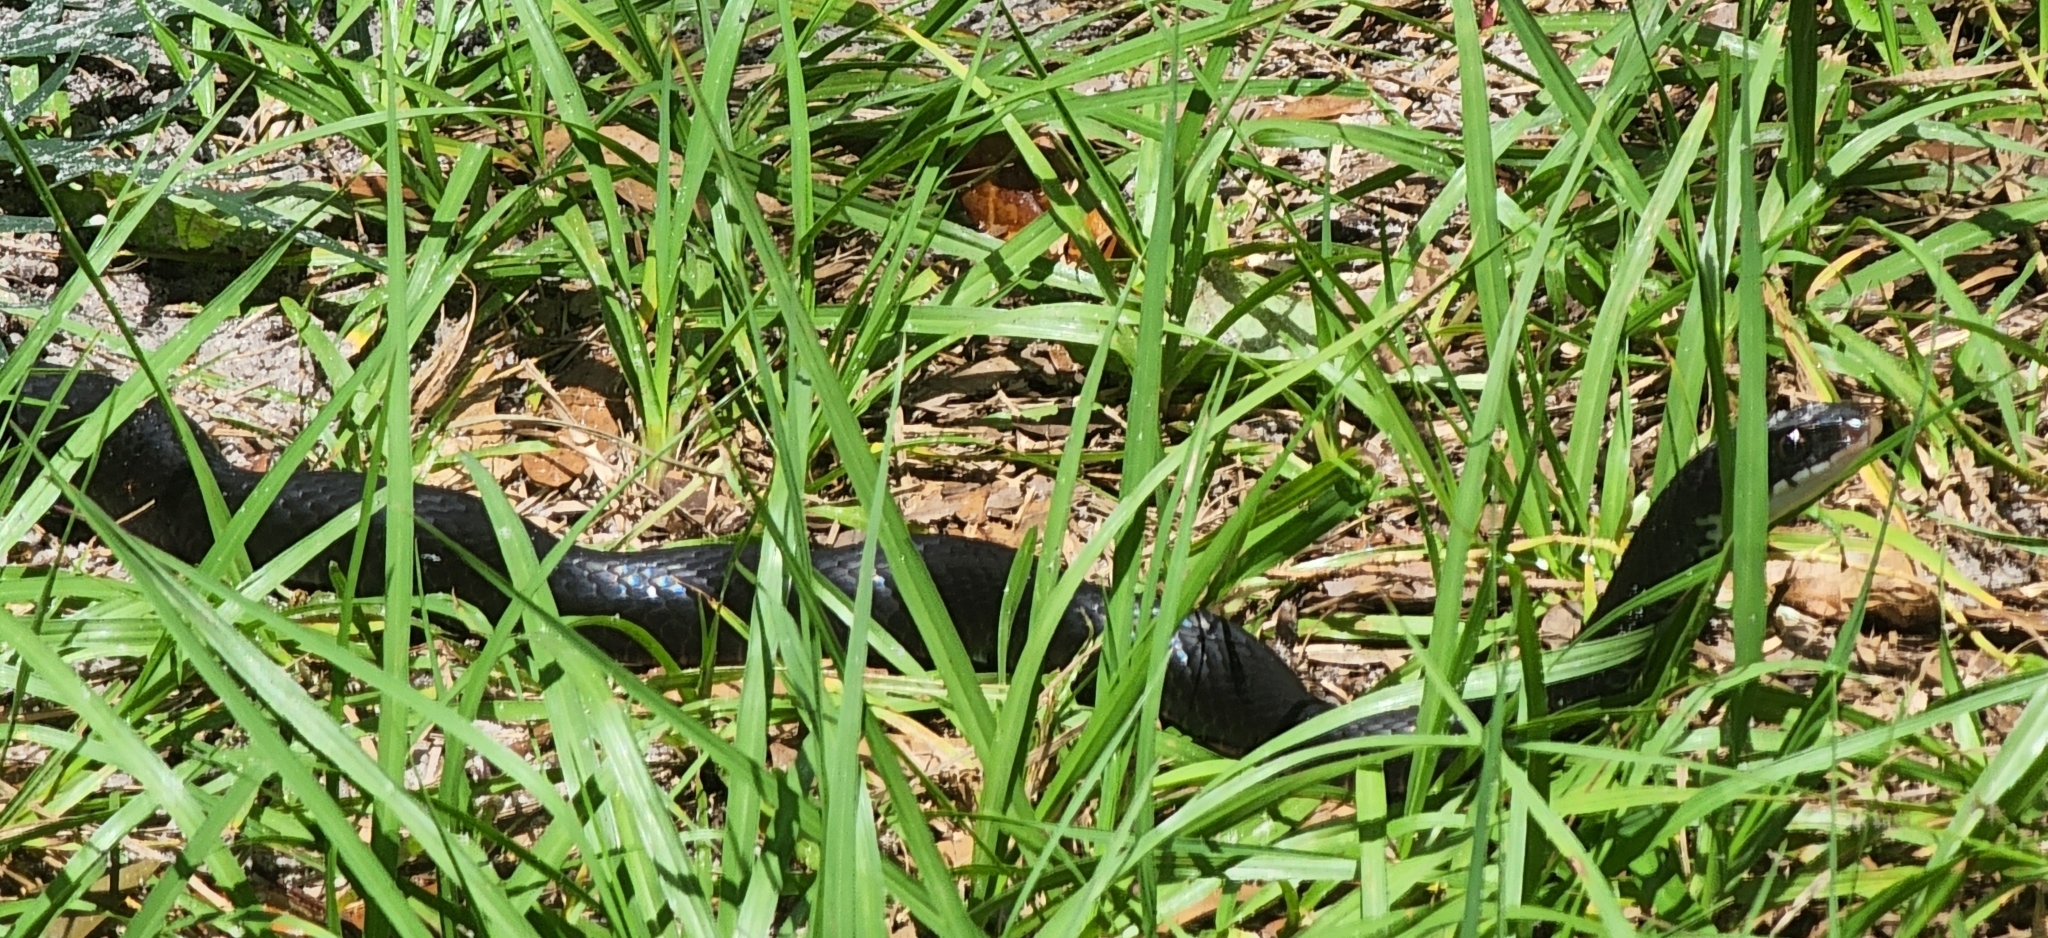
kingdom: Animalia
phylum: Chordata
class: Squamata
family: Colubridae
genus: Coluber
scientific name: Coluber constrictor
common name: Eastern racer
